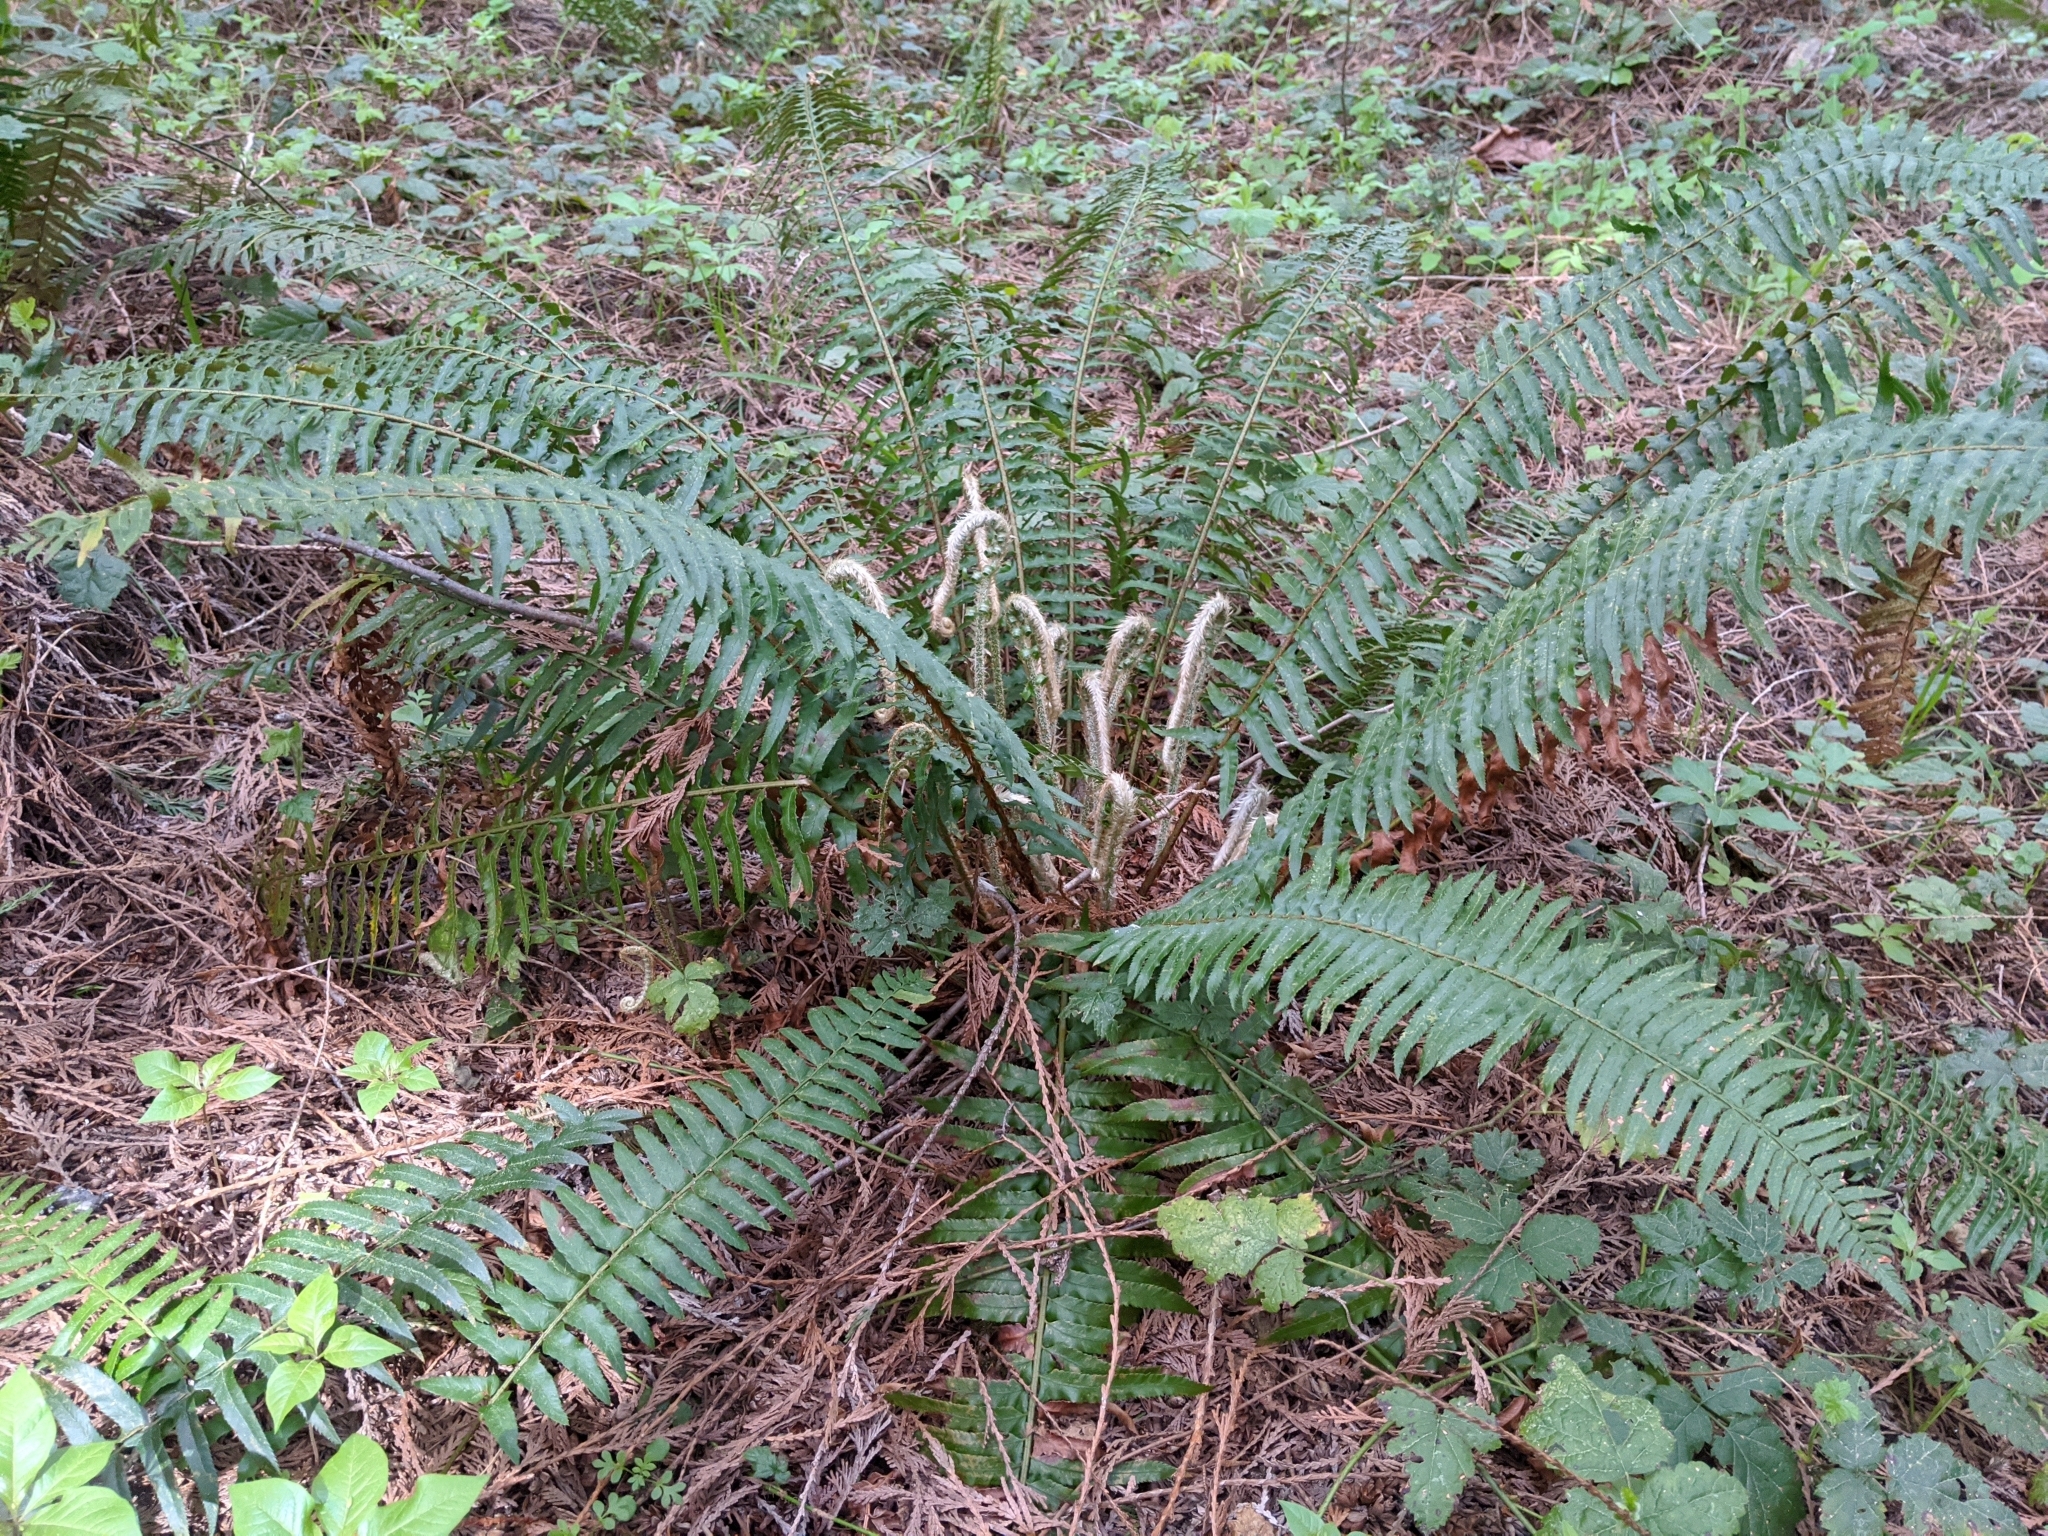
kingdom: Plantae
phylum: Tracheophyta
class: Polypodiopsida
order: Polypodiales
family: Dryopteridaceae
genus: Polystichum
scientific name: Polystichum munitum
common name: Western sword-fern
